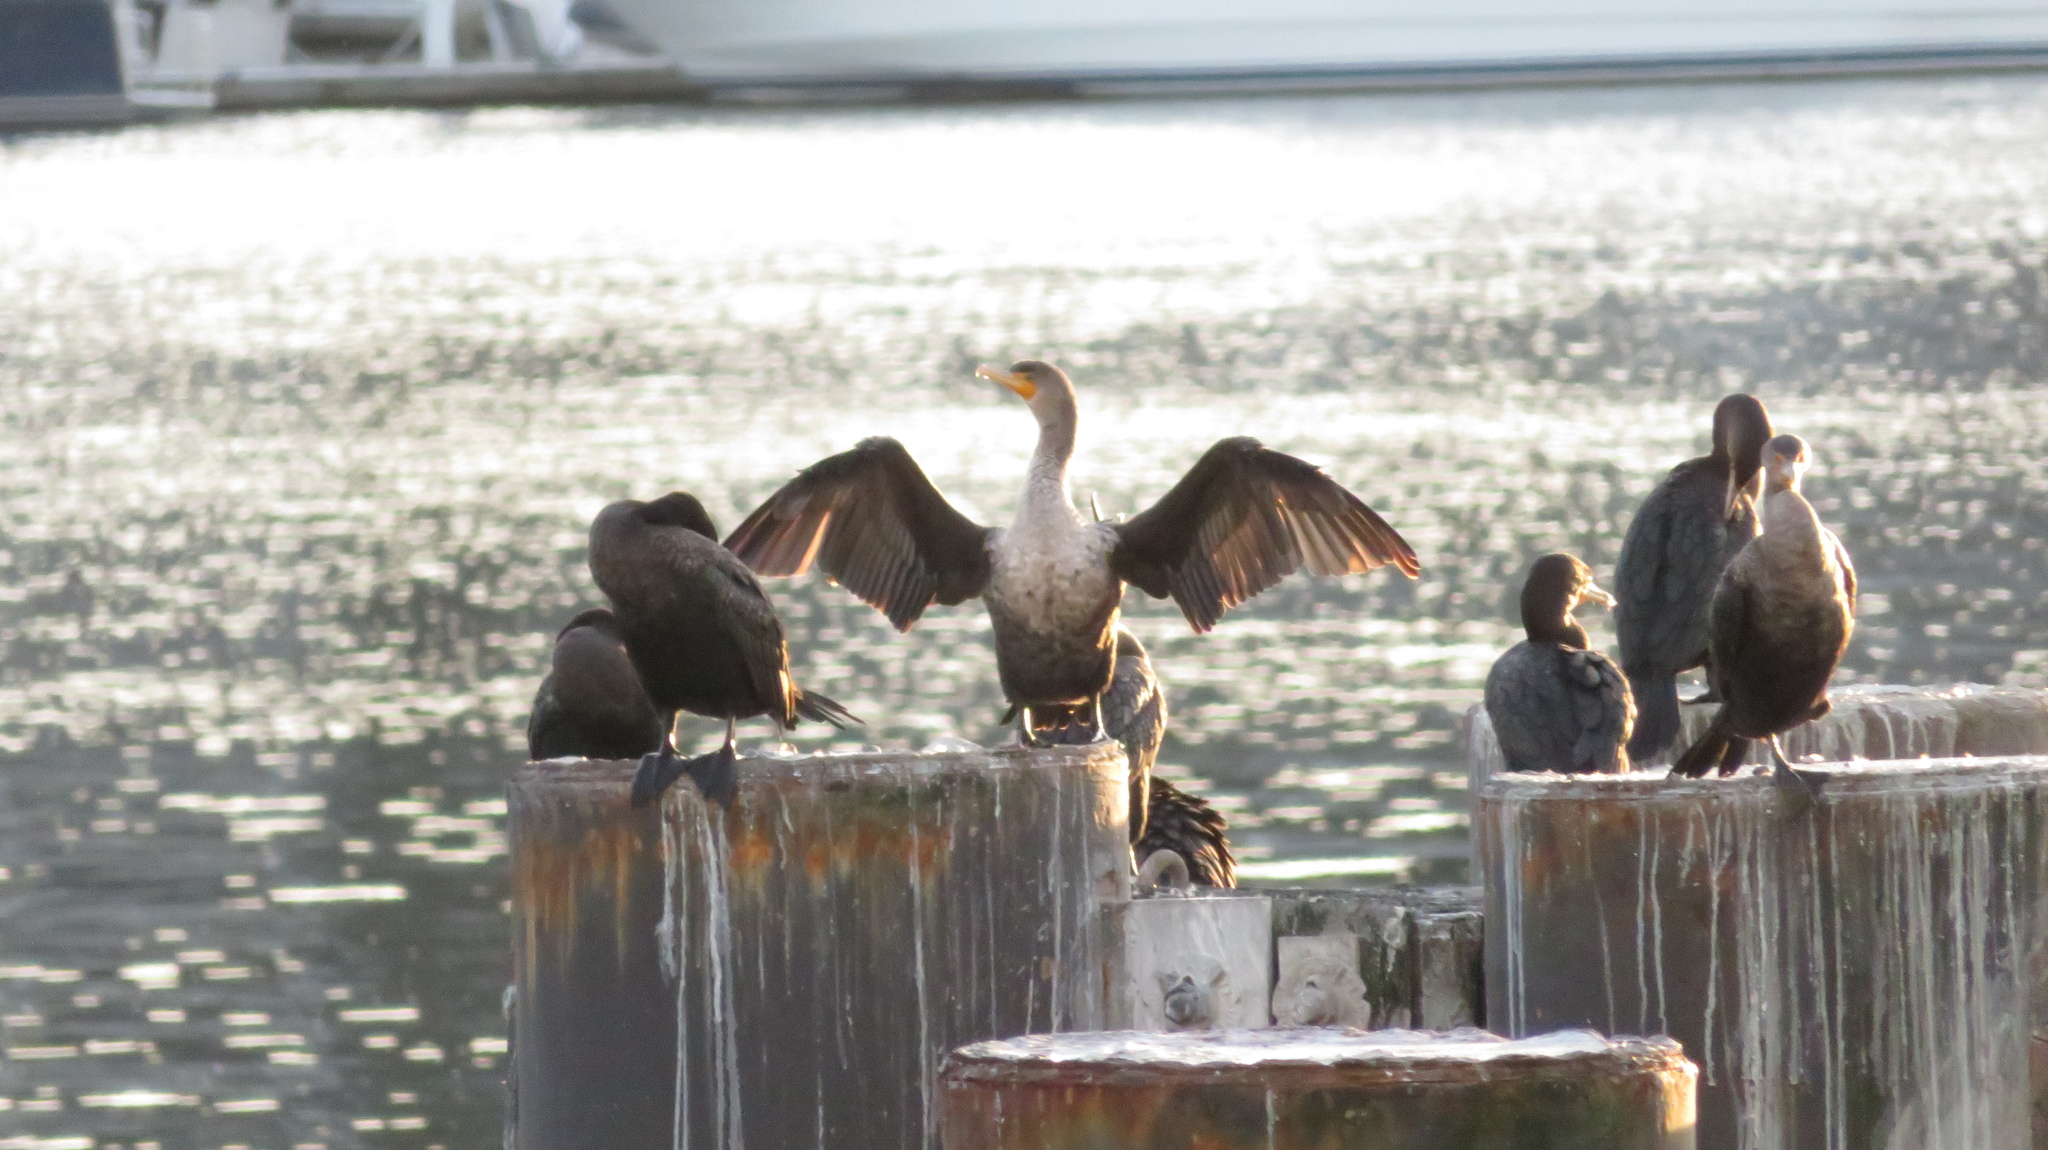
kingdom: Animalia
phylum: Chordata
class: Aves
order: Suliformes
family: Phalacrocoracidae
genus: Phalacrocorax
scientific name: Phalacrocorax auritus
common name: Double-crested cormorant
